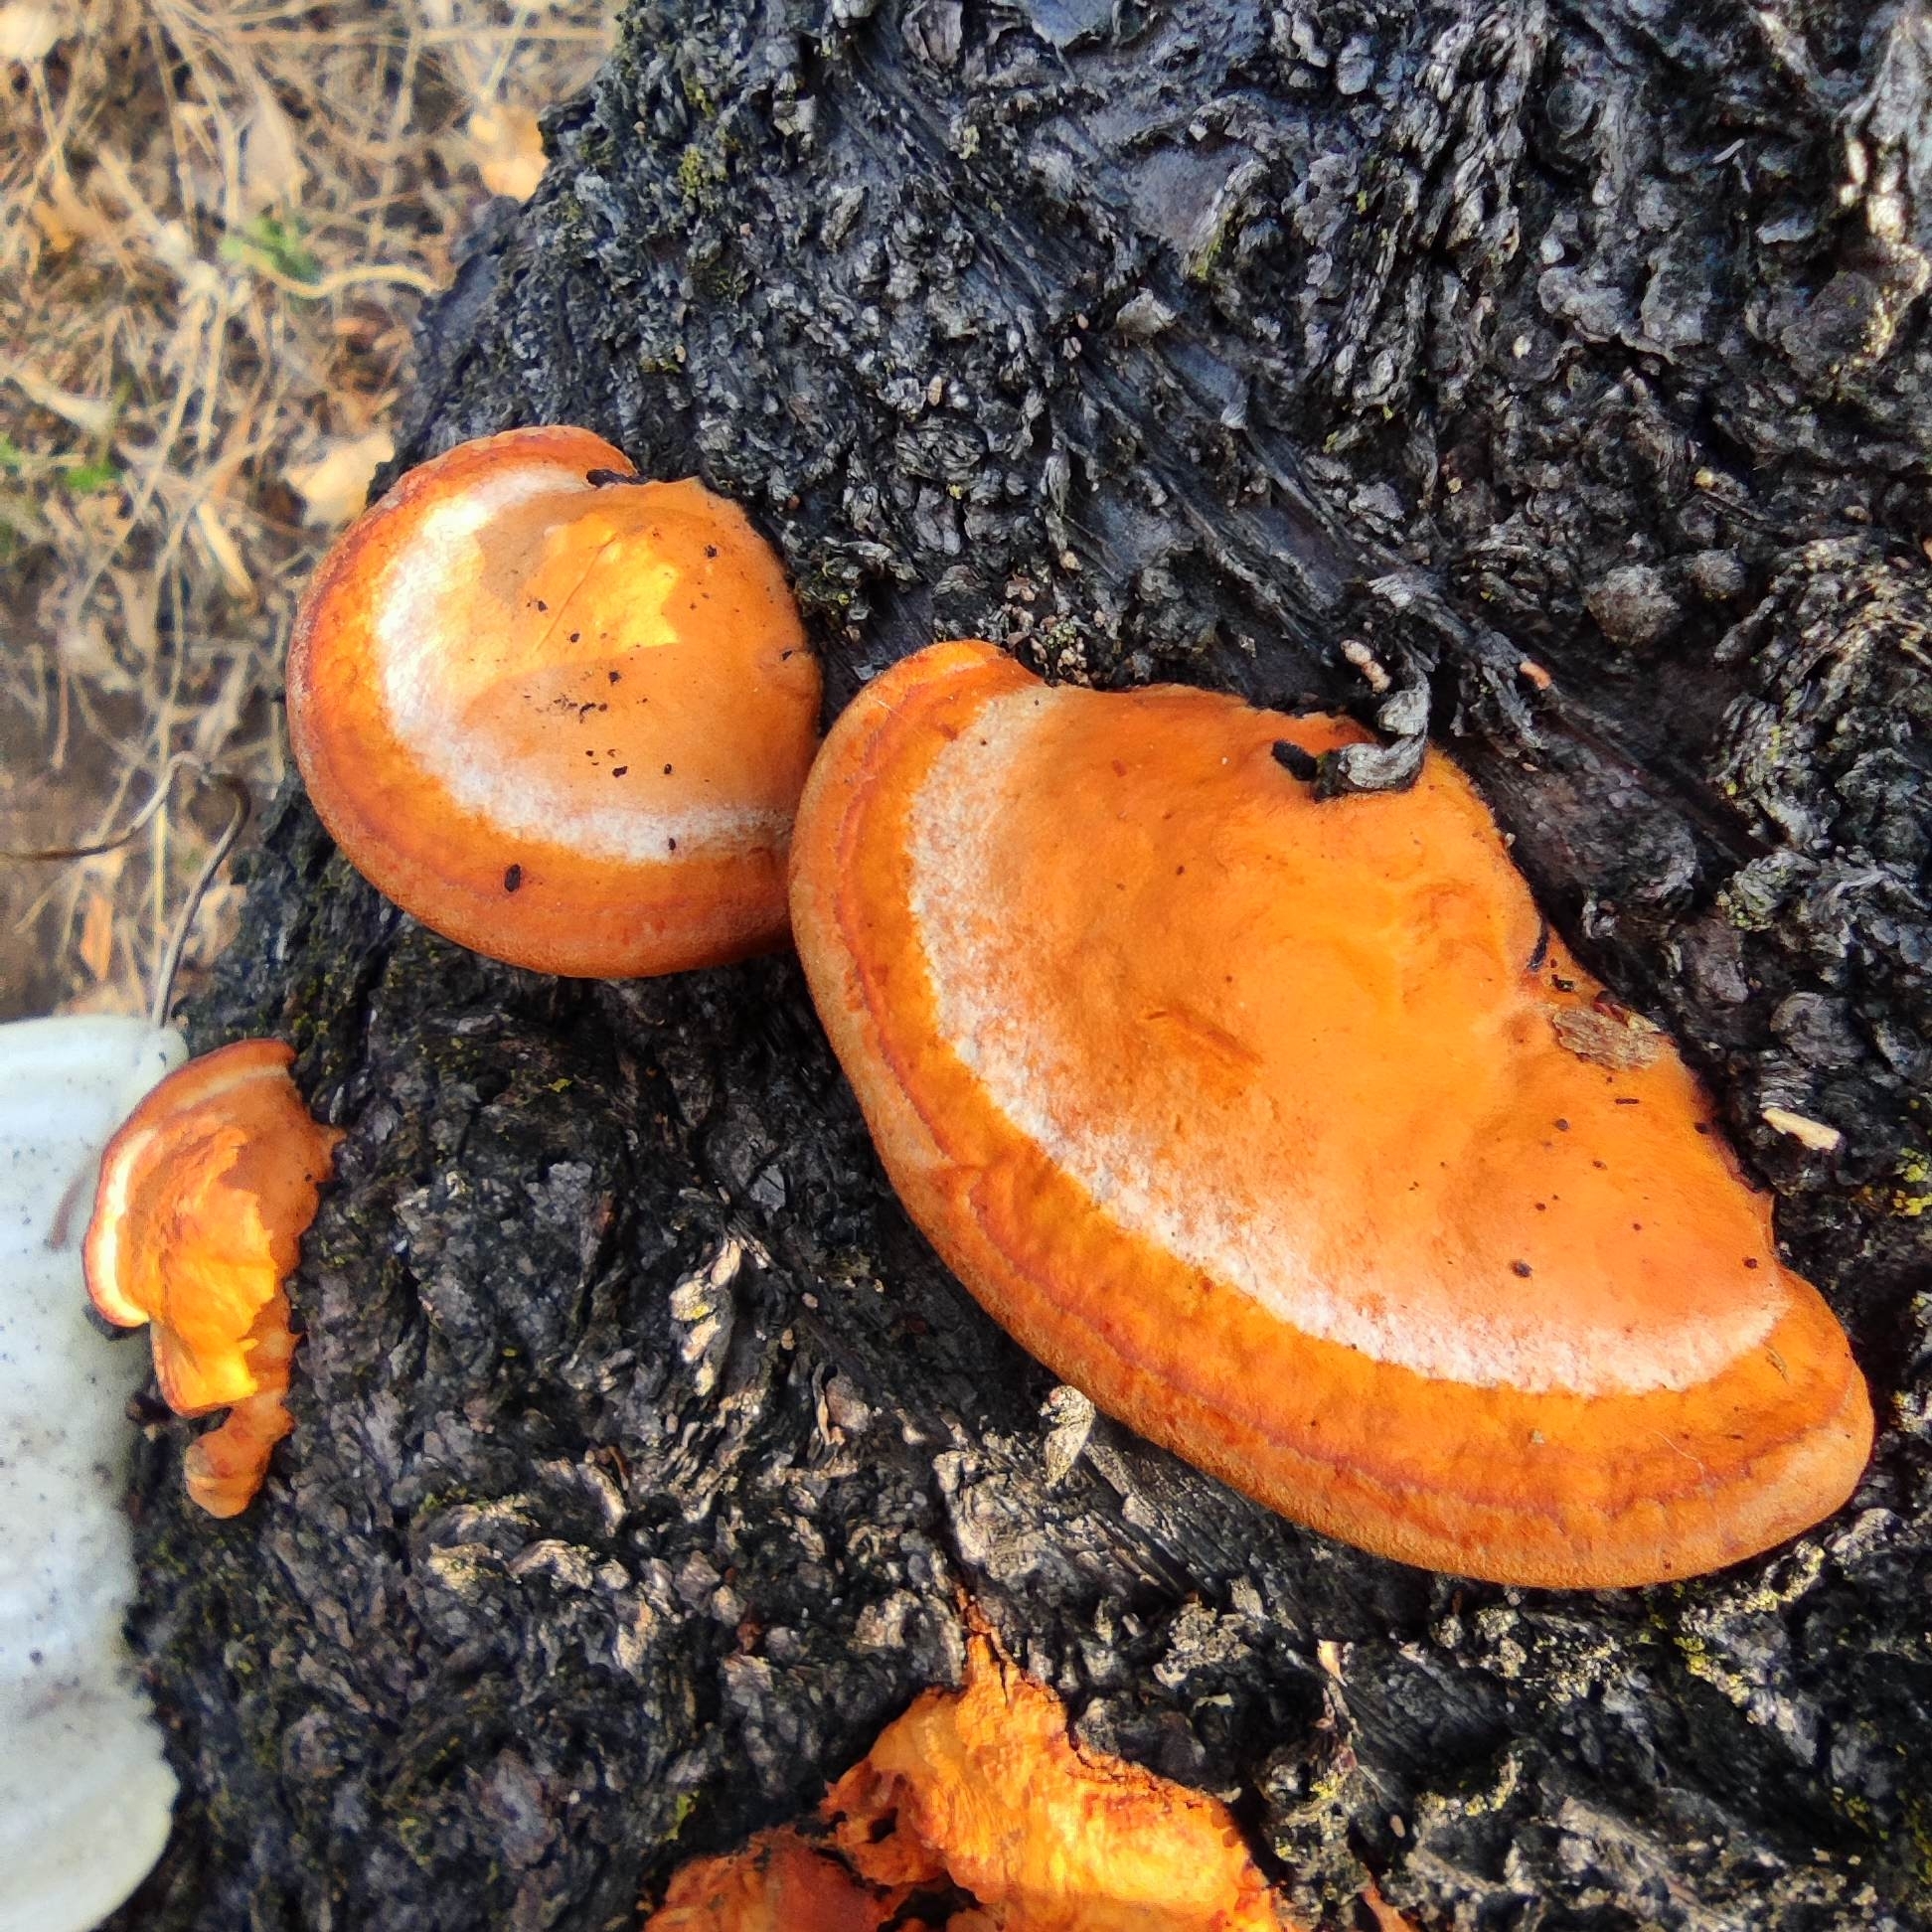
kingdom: Fungi
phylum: Basidiomycota
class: Agaricomycetes
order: Polyporales
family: Polyporaceae
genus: Trametes
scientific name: Trametes cinnabarina
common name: Northern cinnabar polypore
